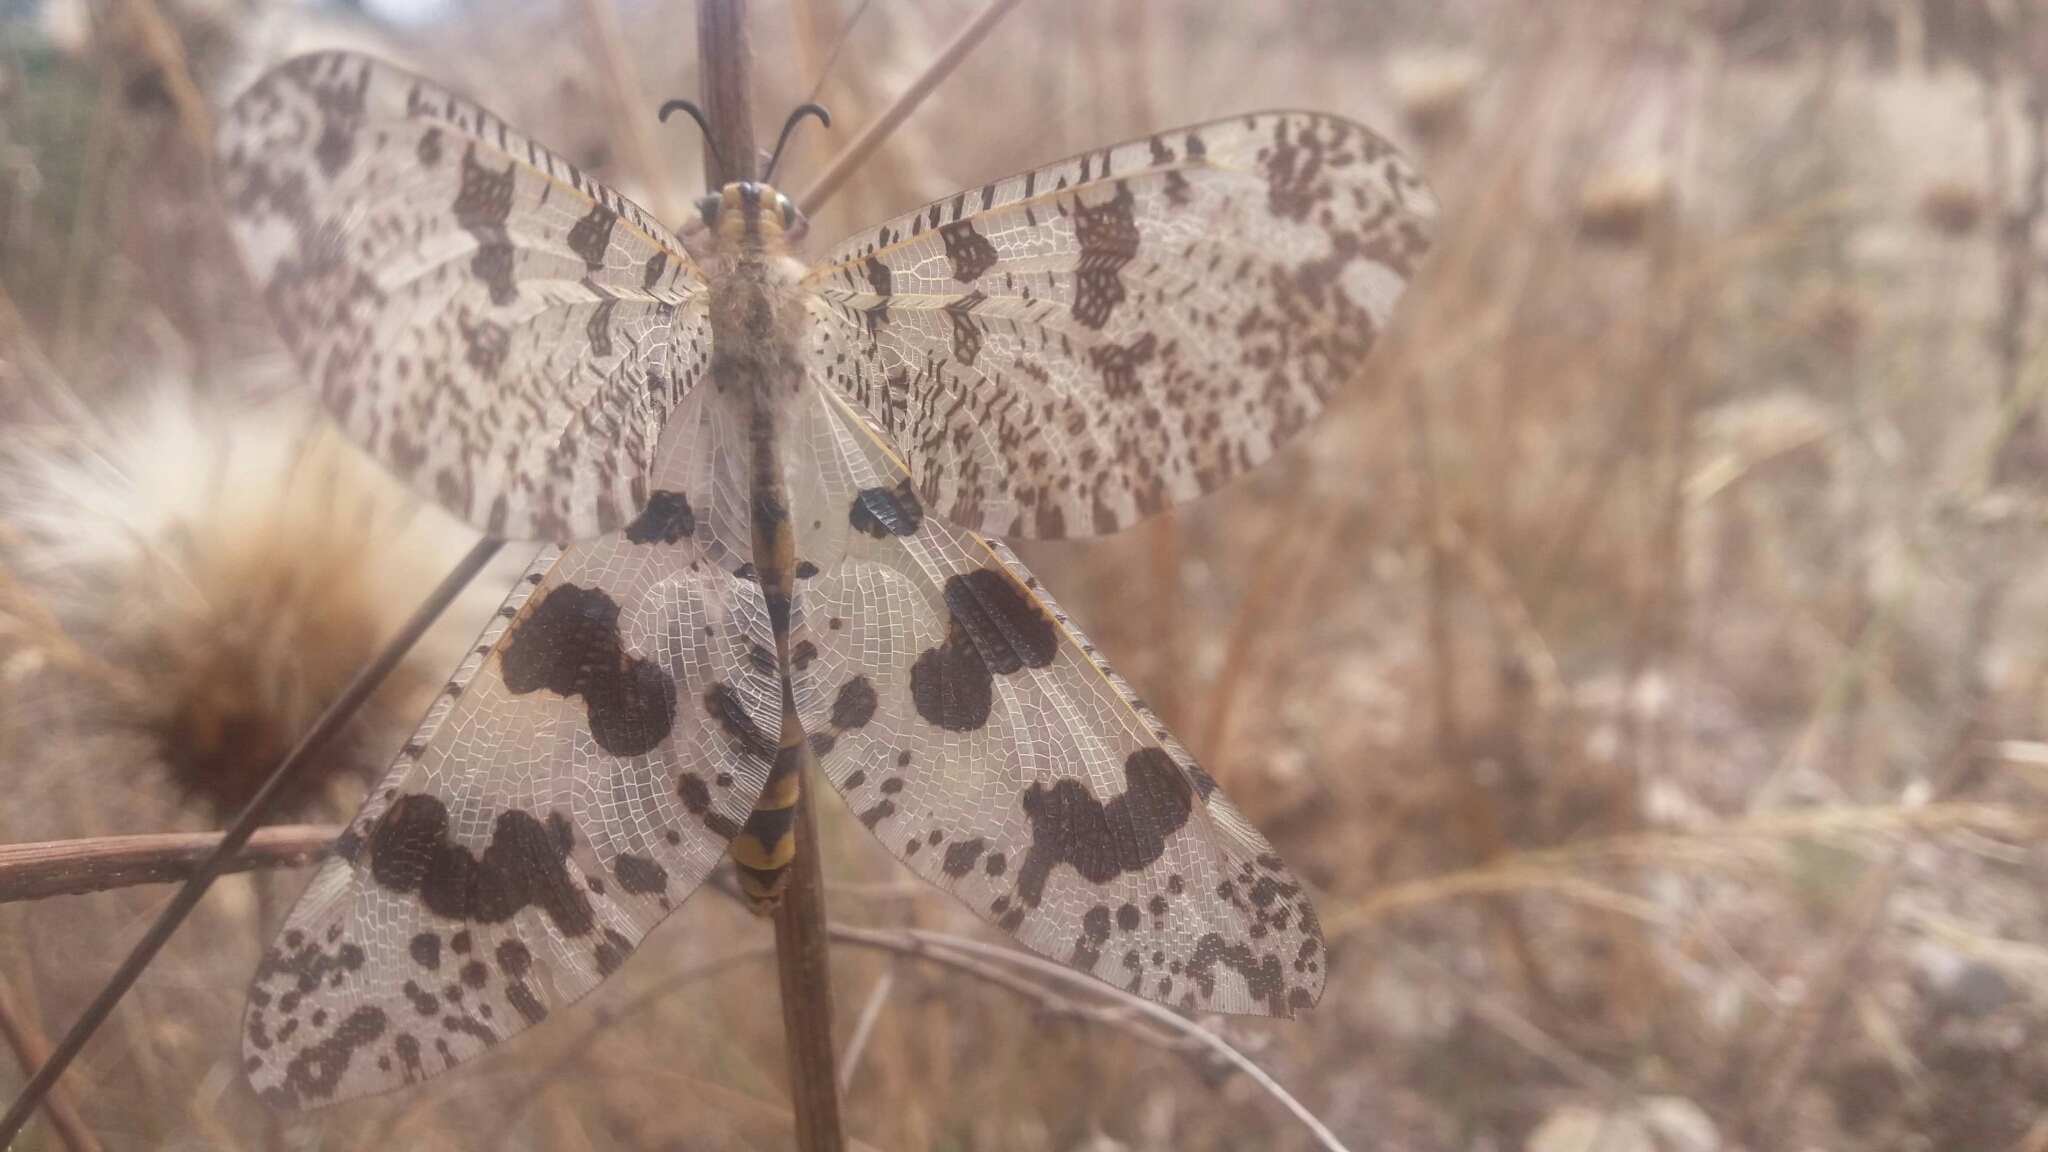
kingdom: Animalia
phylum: Arthropoda
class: Insecta
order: Neuroptera
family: Myrmeleontidae
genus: Palpares
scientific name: Palpares hispanus
